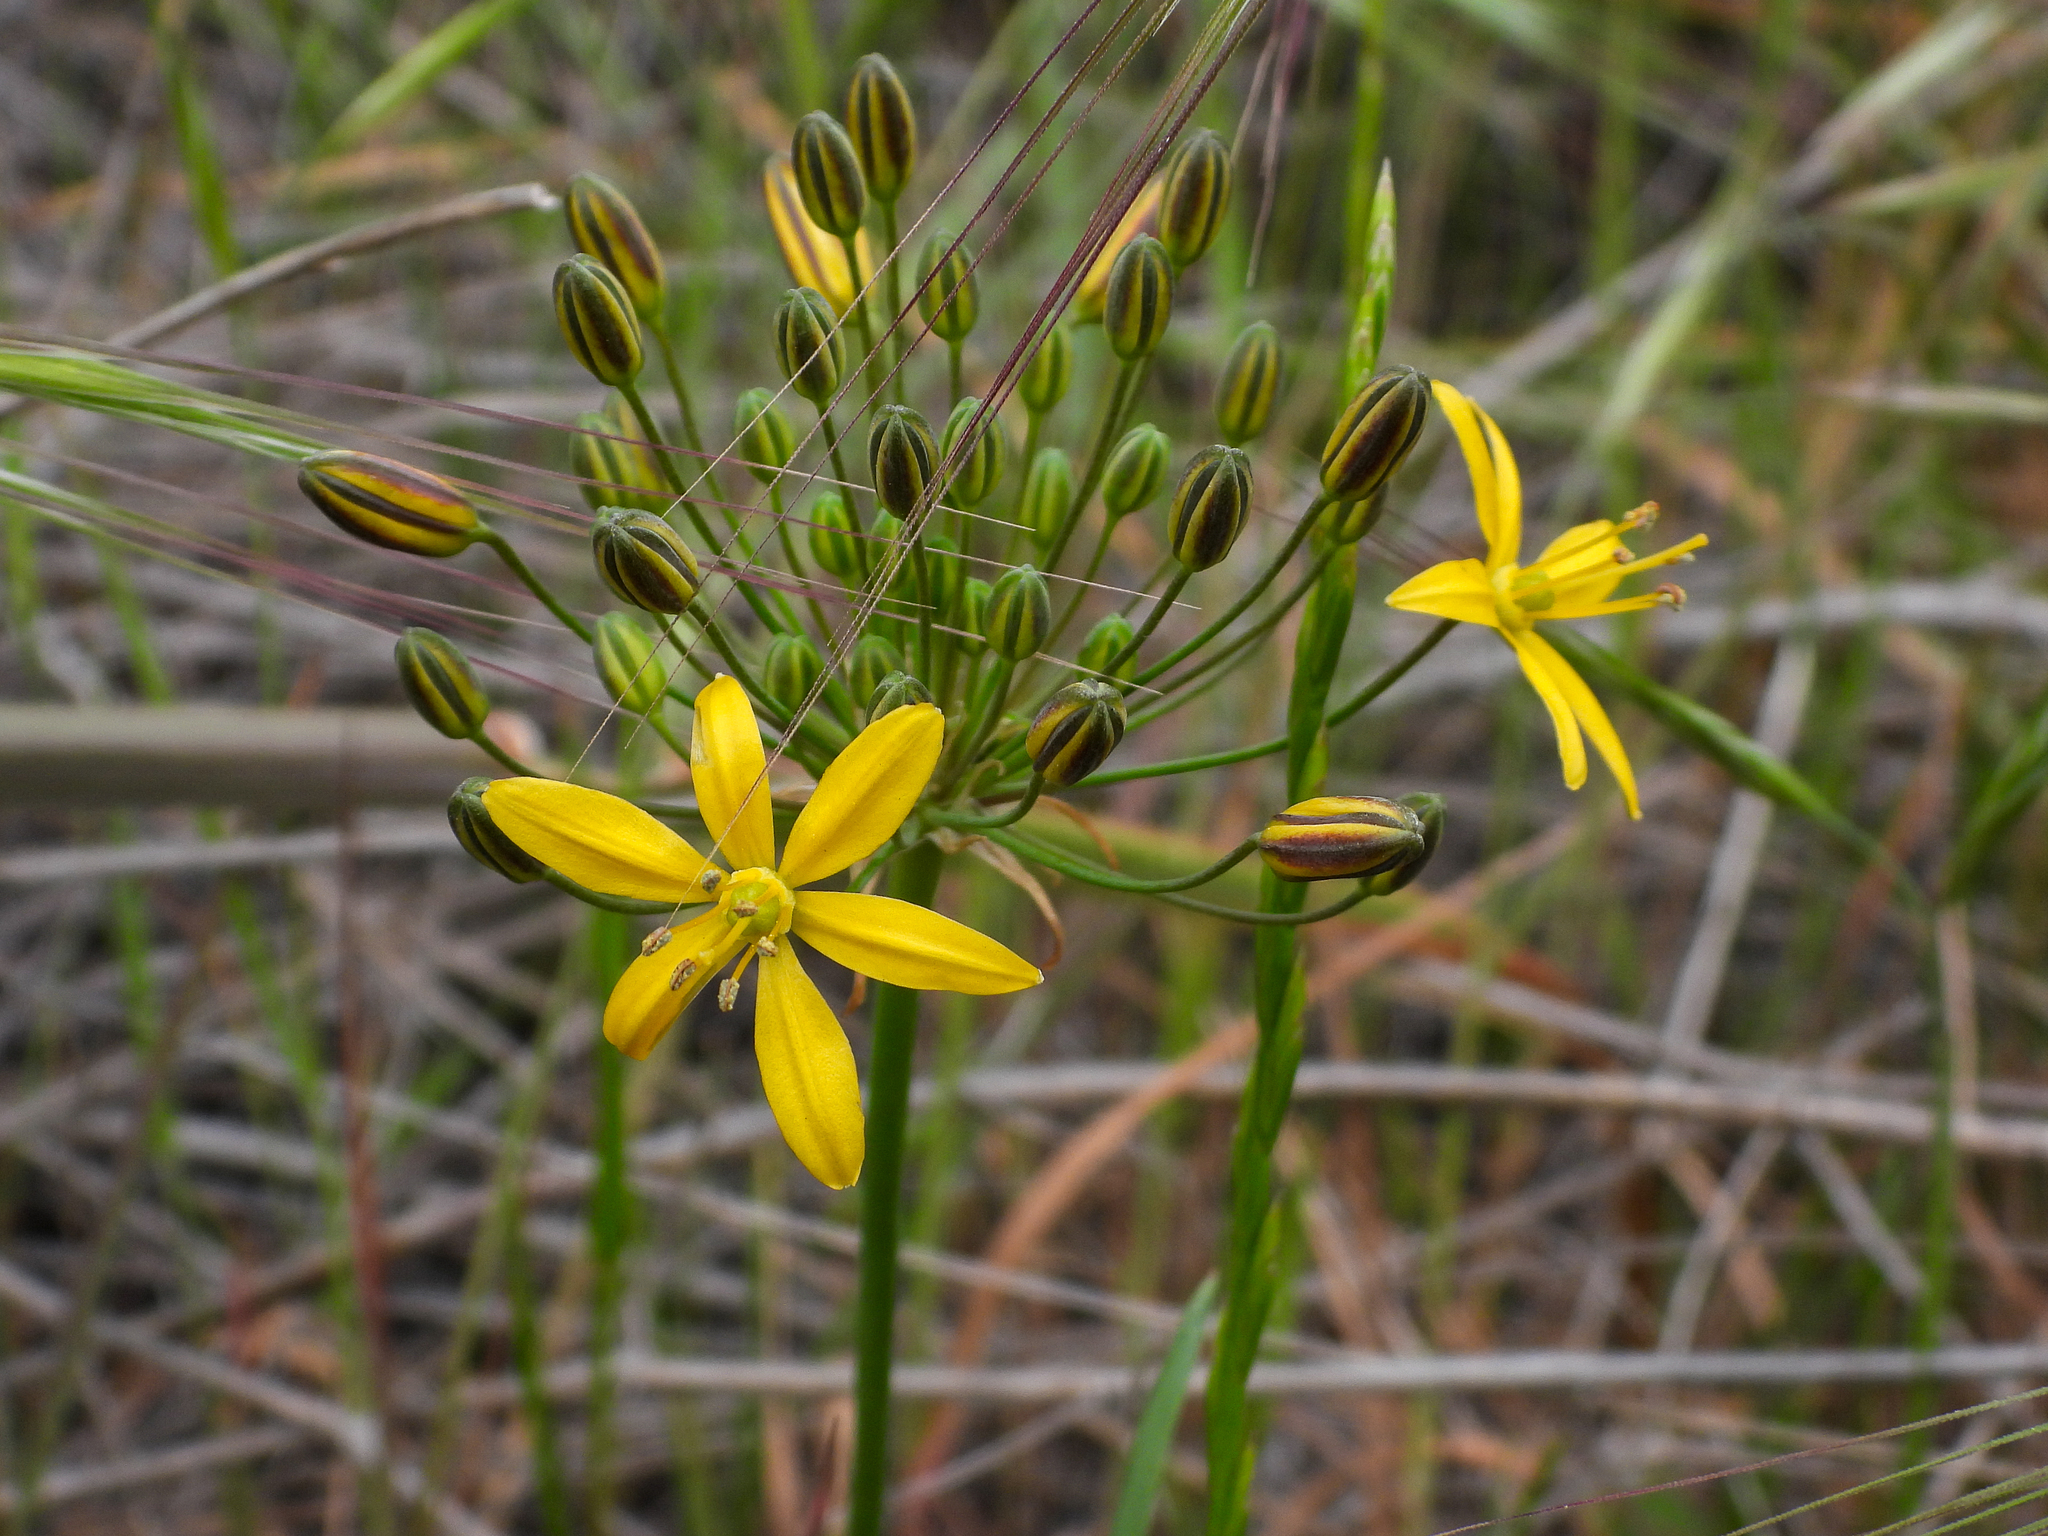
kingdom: Plantae
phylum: Tracheophyta
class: Liliopsida
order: Asparagales
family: Asparagaceae
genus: Bloomeria
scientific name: Bloomeria crocea
